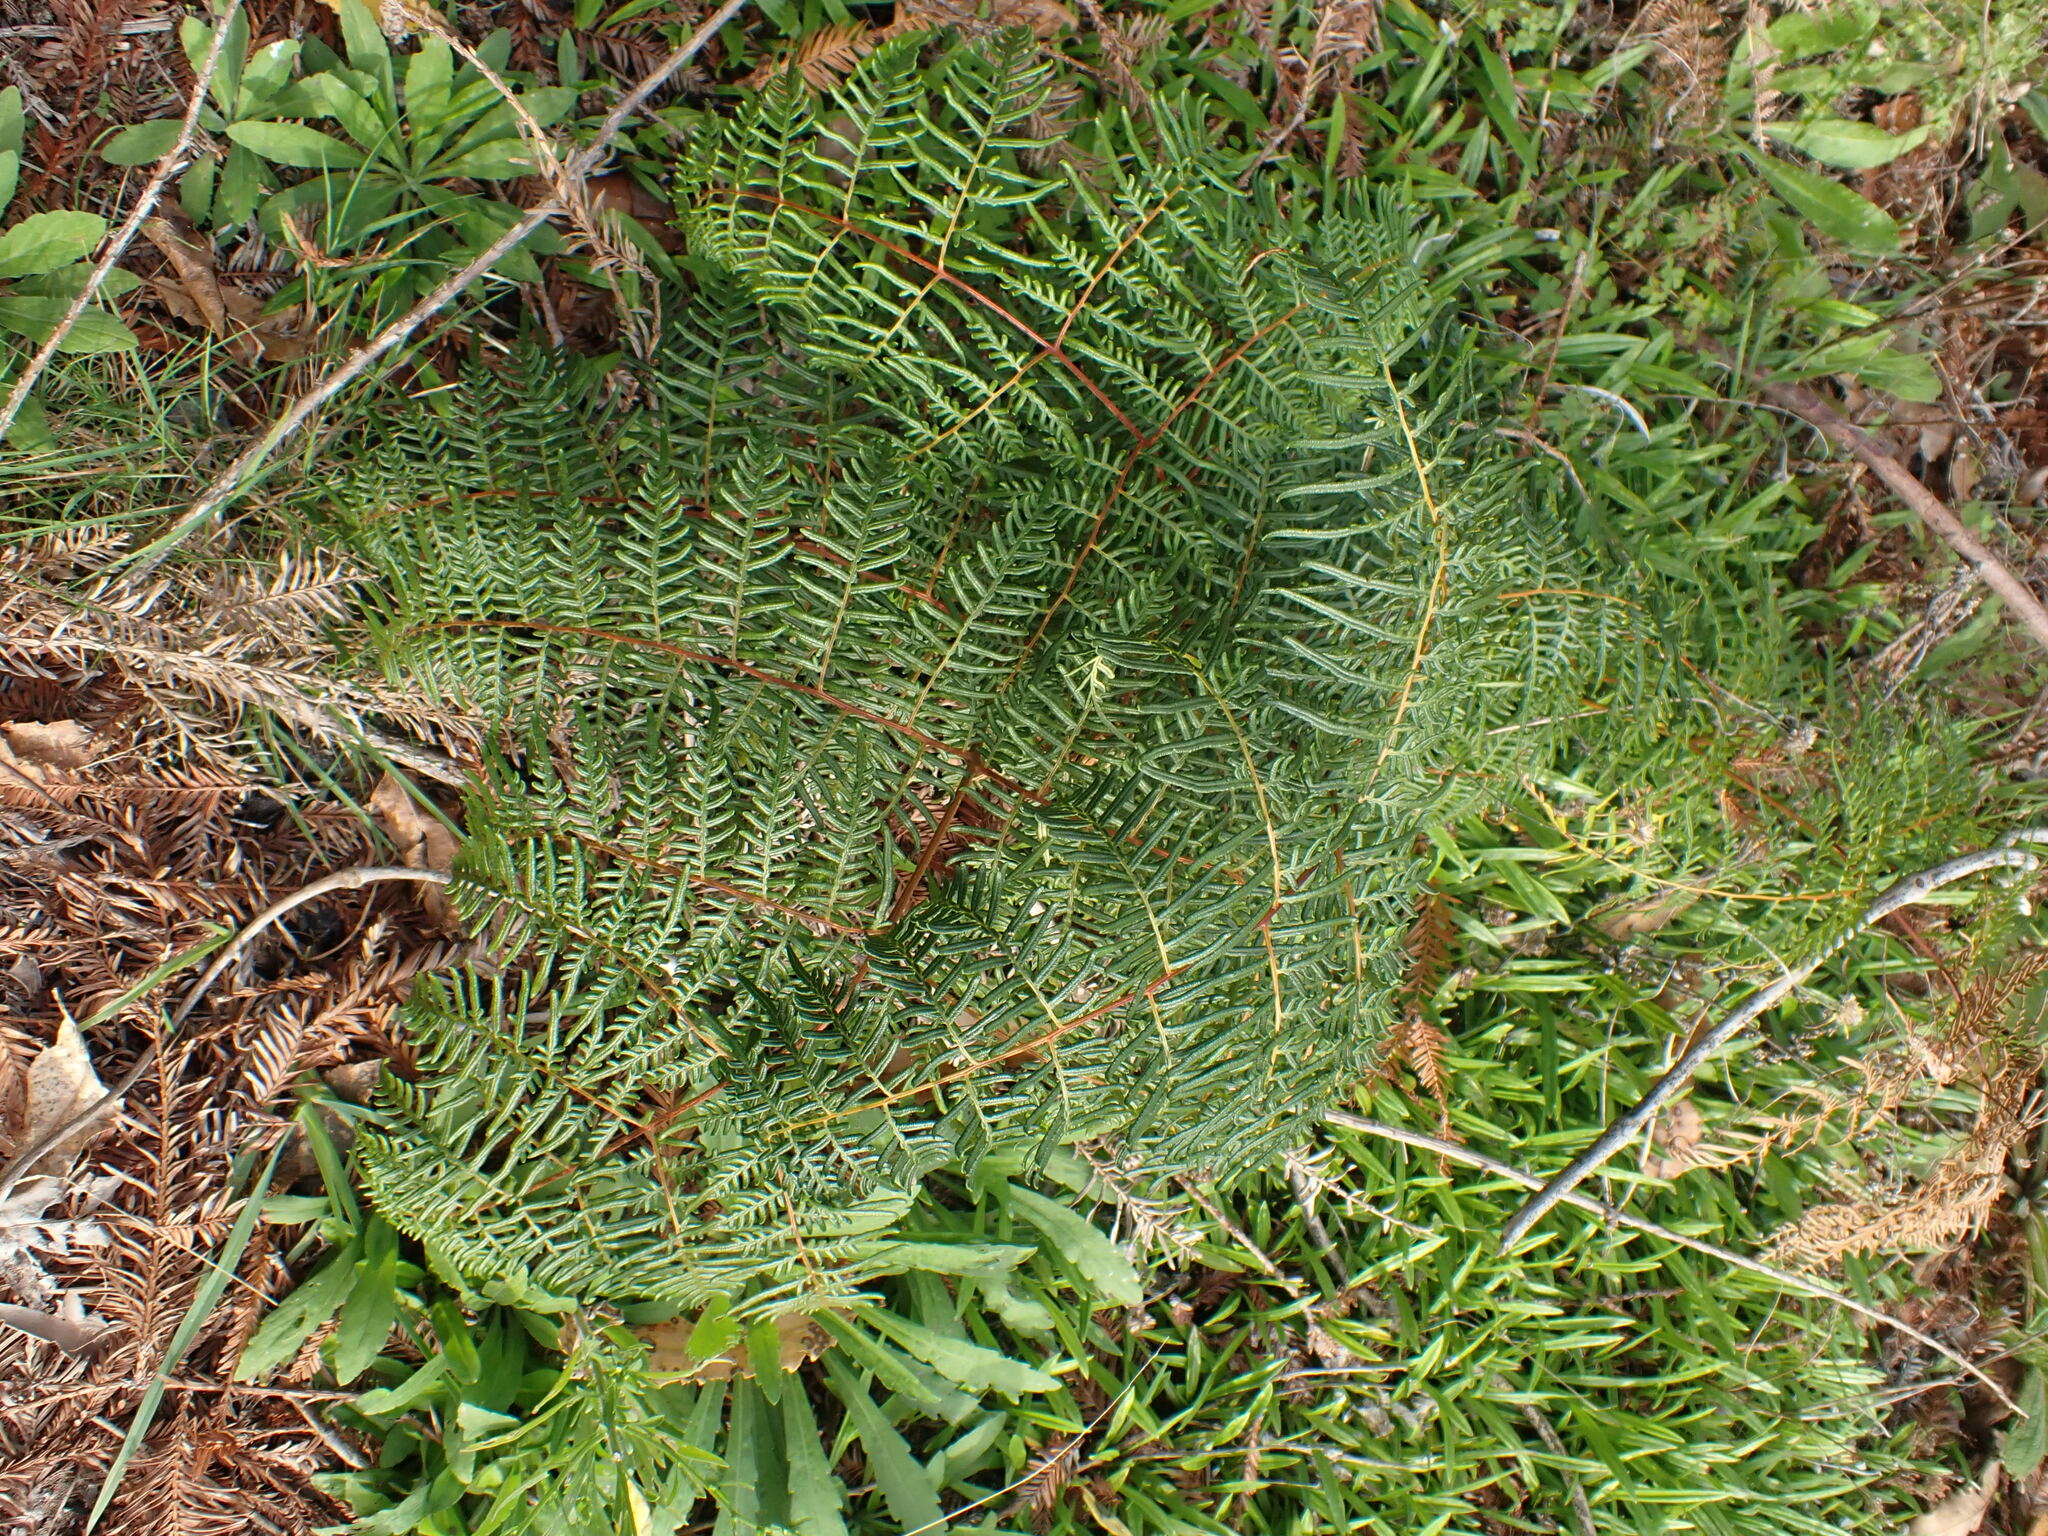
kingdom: Plantae
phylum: Tracheophyta
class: Polypodiopsida
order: Polypodiales
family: Dennstaedtiaceae
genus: Pteridium
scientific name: Pteridium esculentum
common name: Bracken fern
